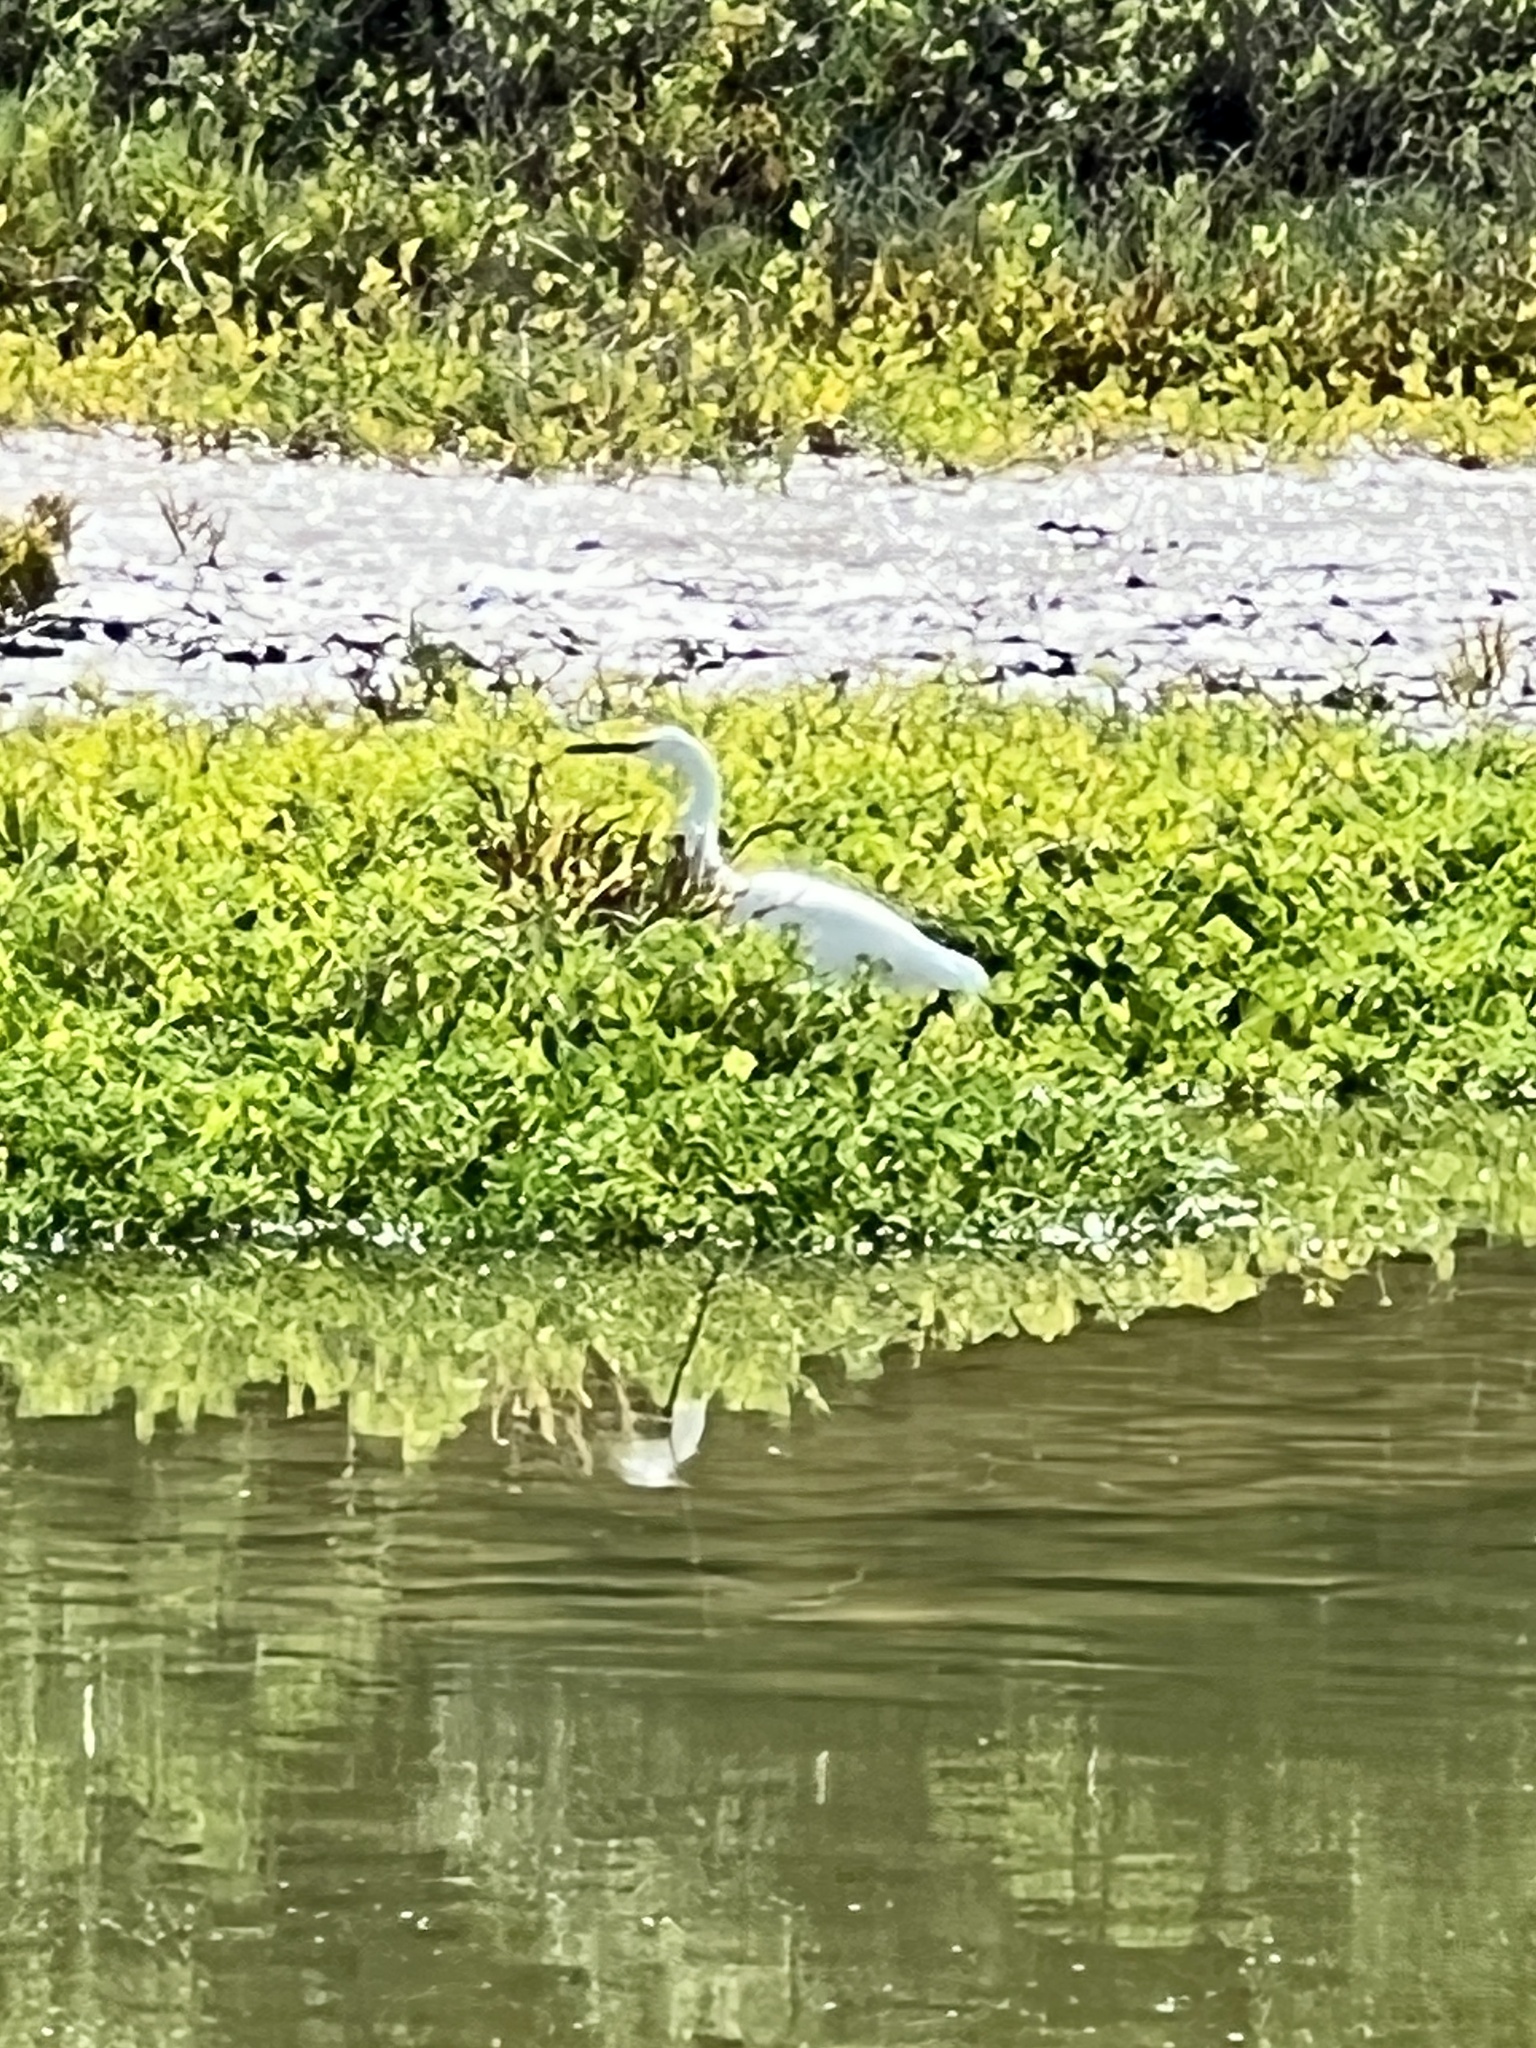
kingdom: Animalia
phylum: Chordata
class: Aves
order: Pelecaniformes
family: Ardeidae
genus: Egretta
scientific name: Egretta thula
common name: Snowy egret
